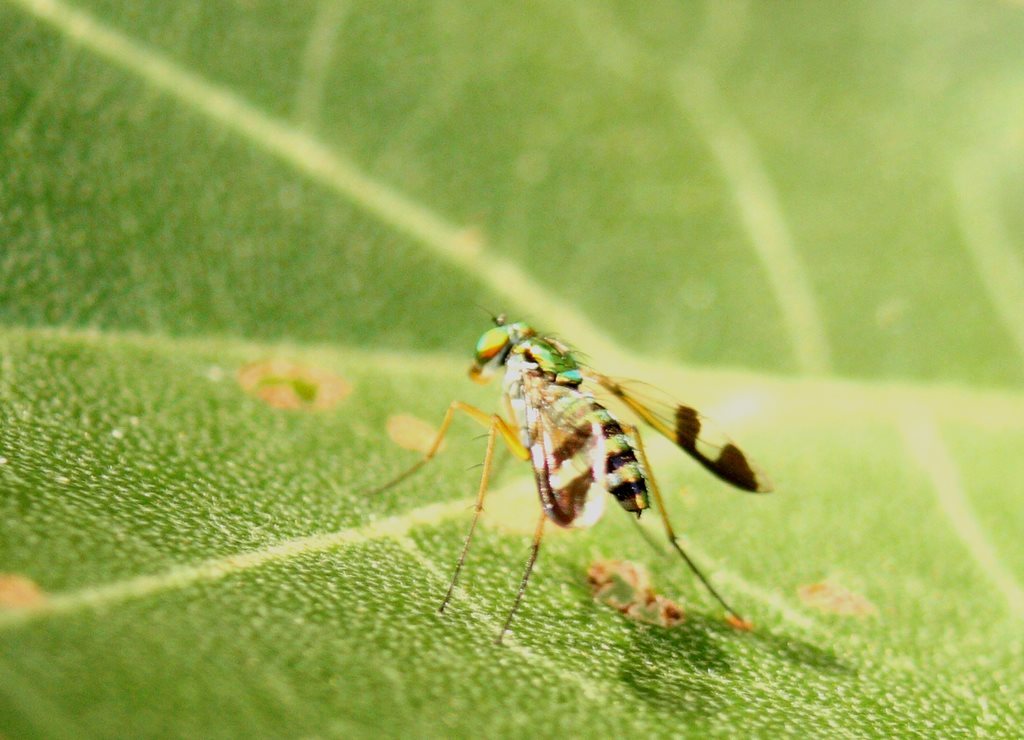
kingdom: Animalia
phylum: Arthropoda
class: Insecta
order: Diptera
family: Dolichopodidae
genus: Austrosciapus
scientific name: Austrosciapus
